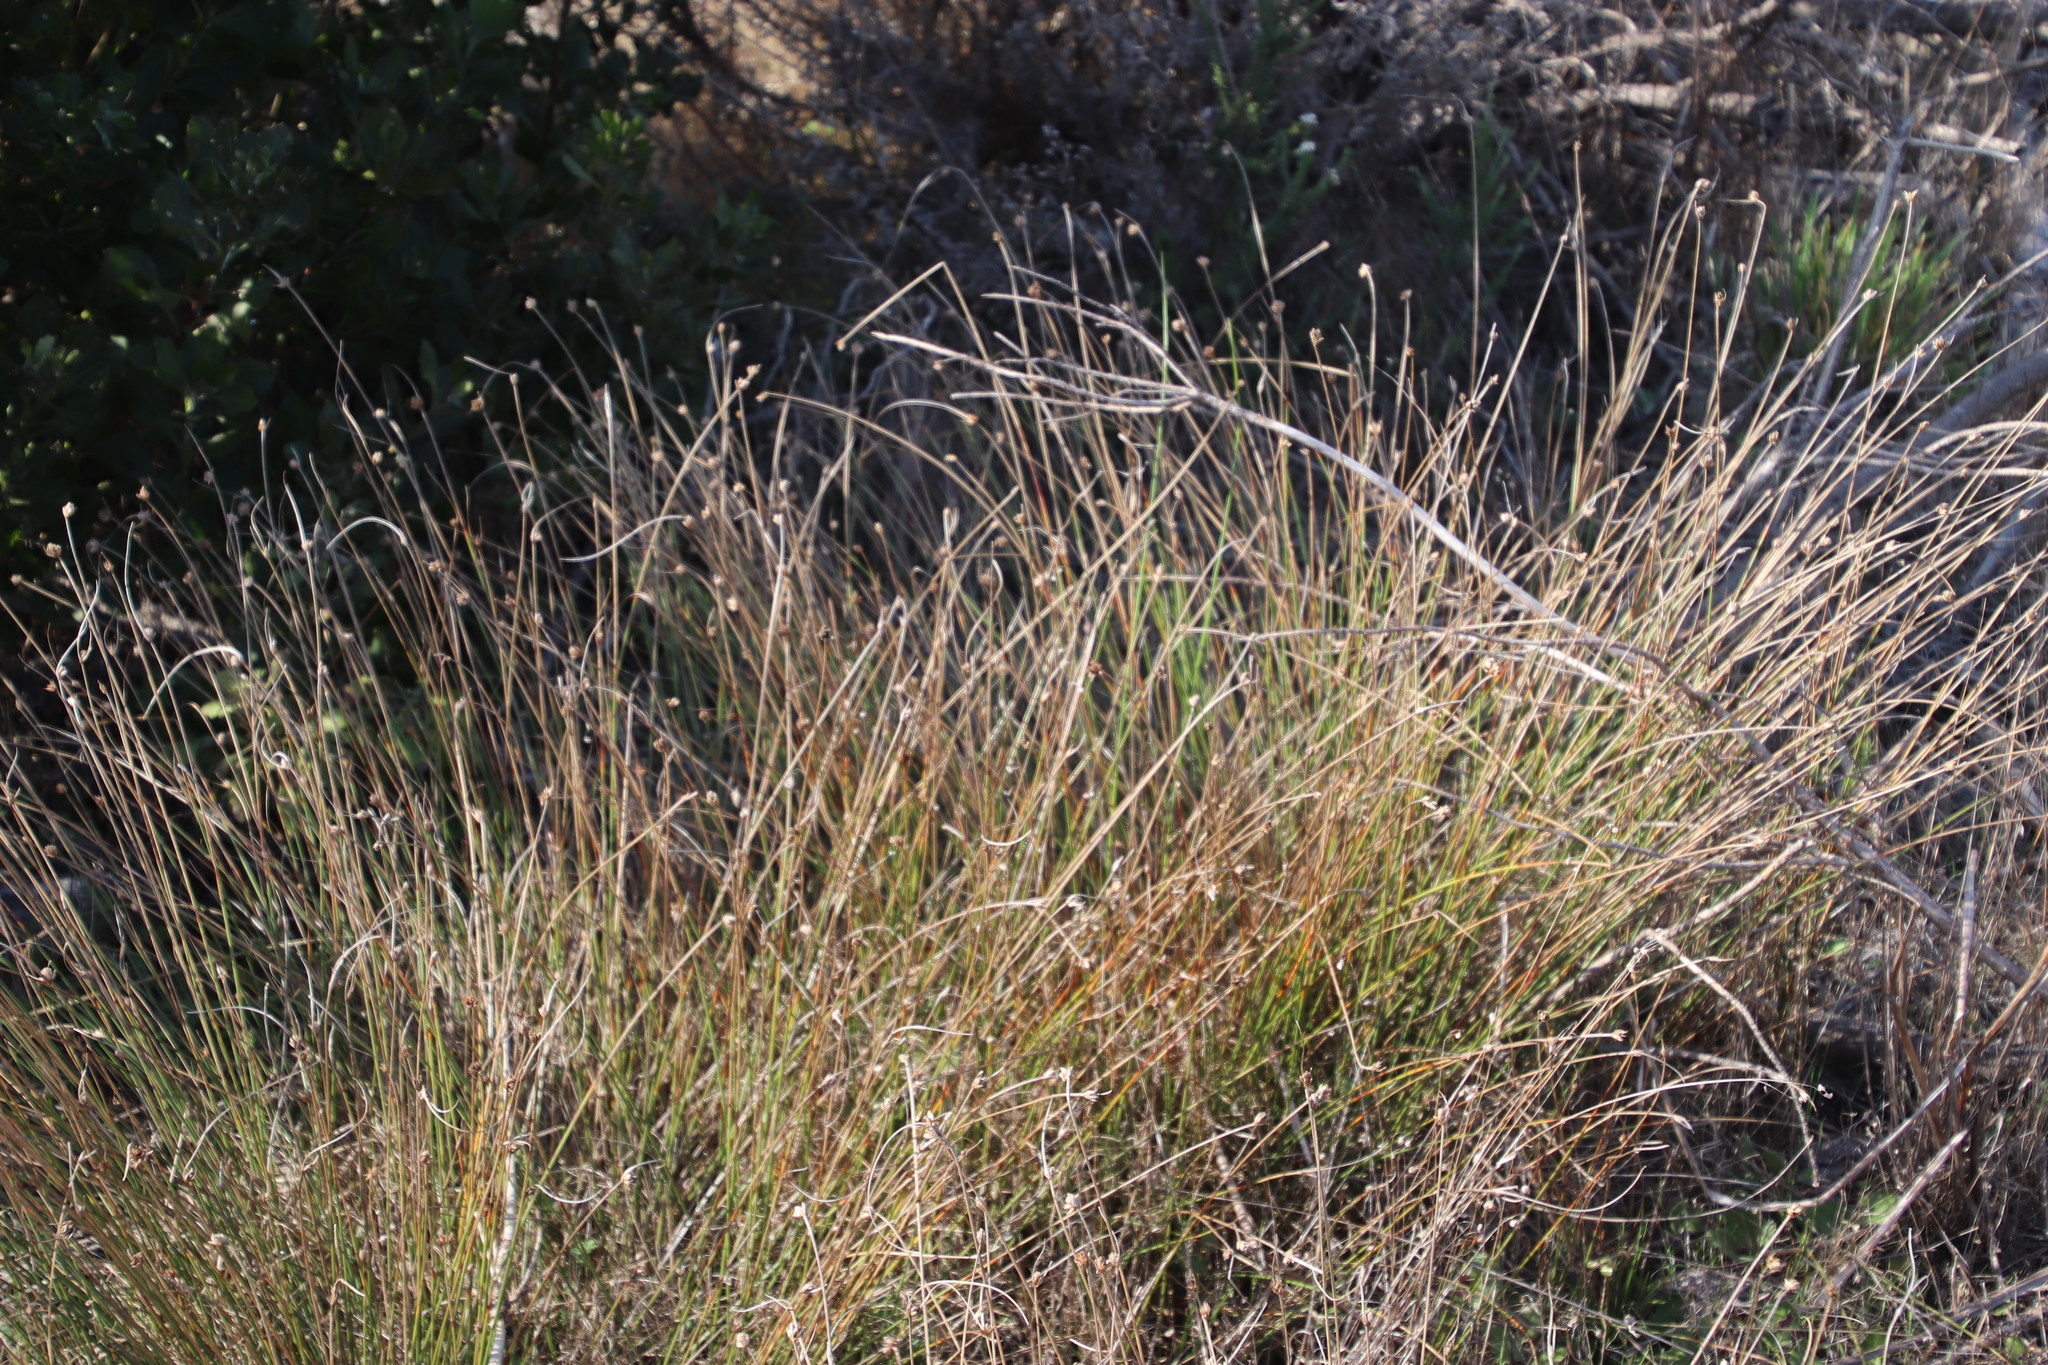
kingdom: Plantae
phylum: Tracheophyta
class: Liliopsida
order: Poales
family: Cyperaceae
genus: Ficinia
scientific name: Ficinia nodosa
